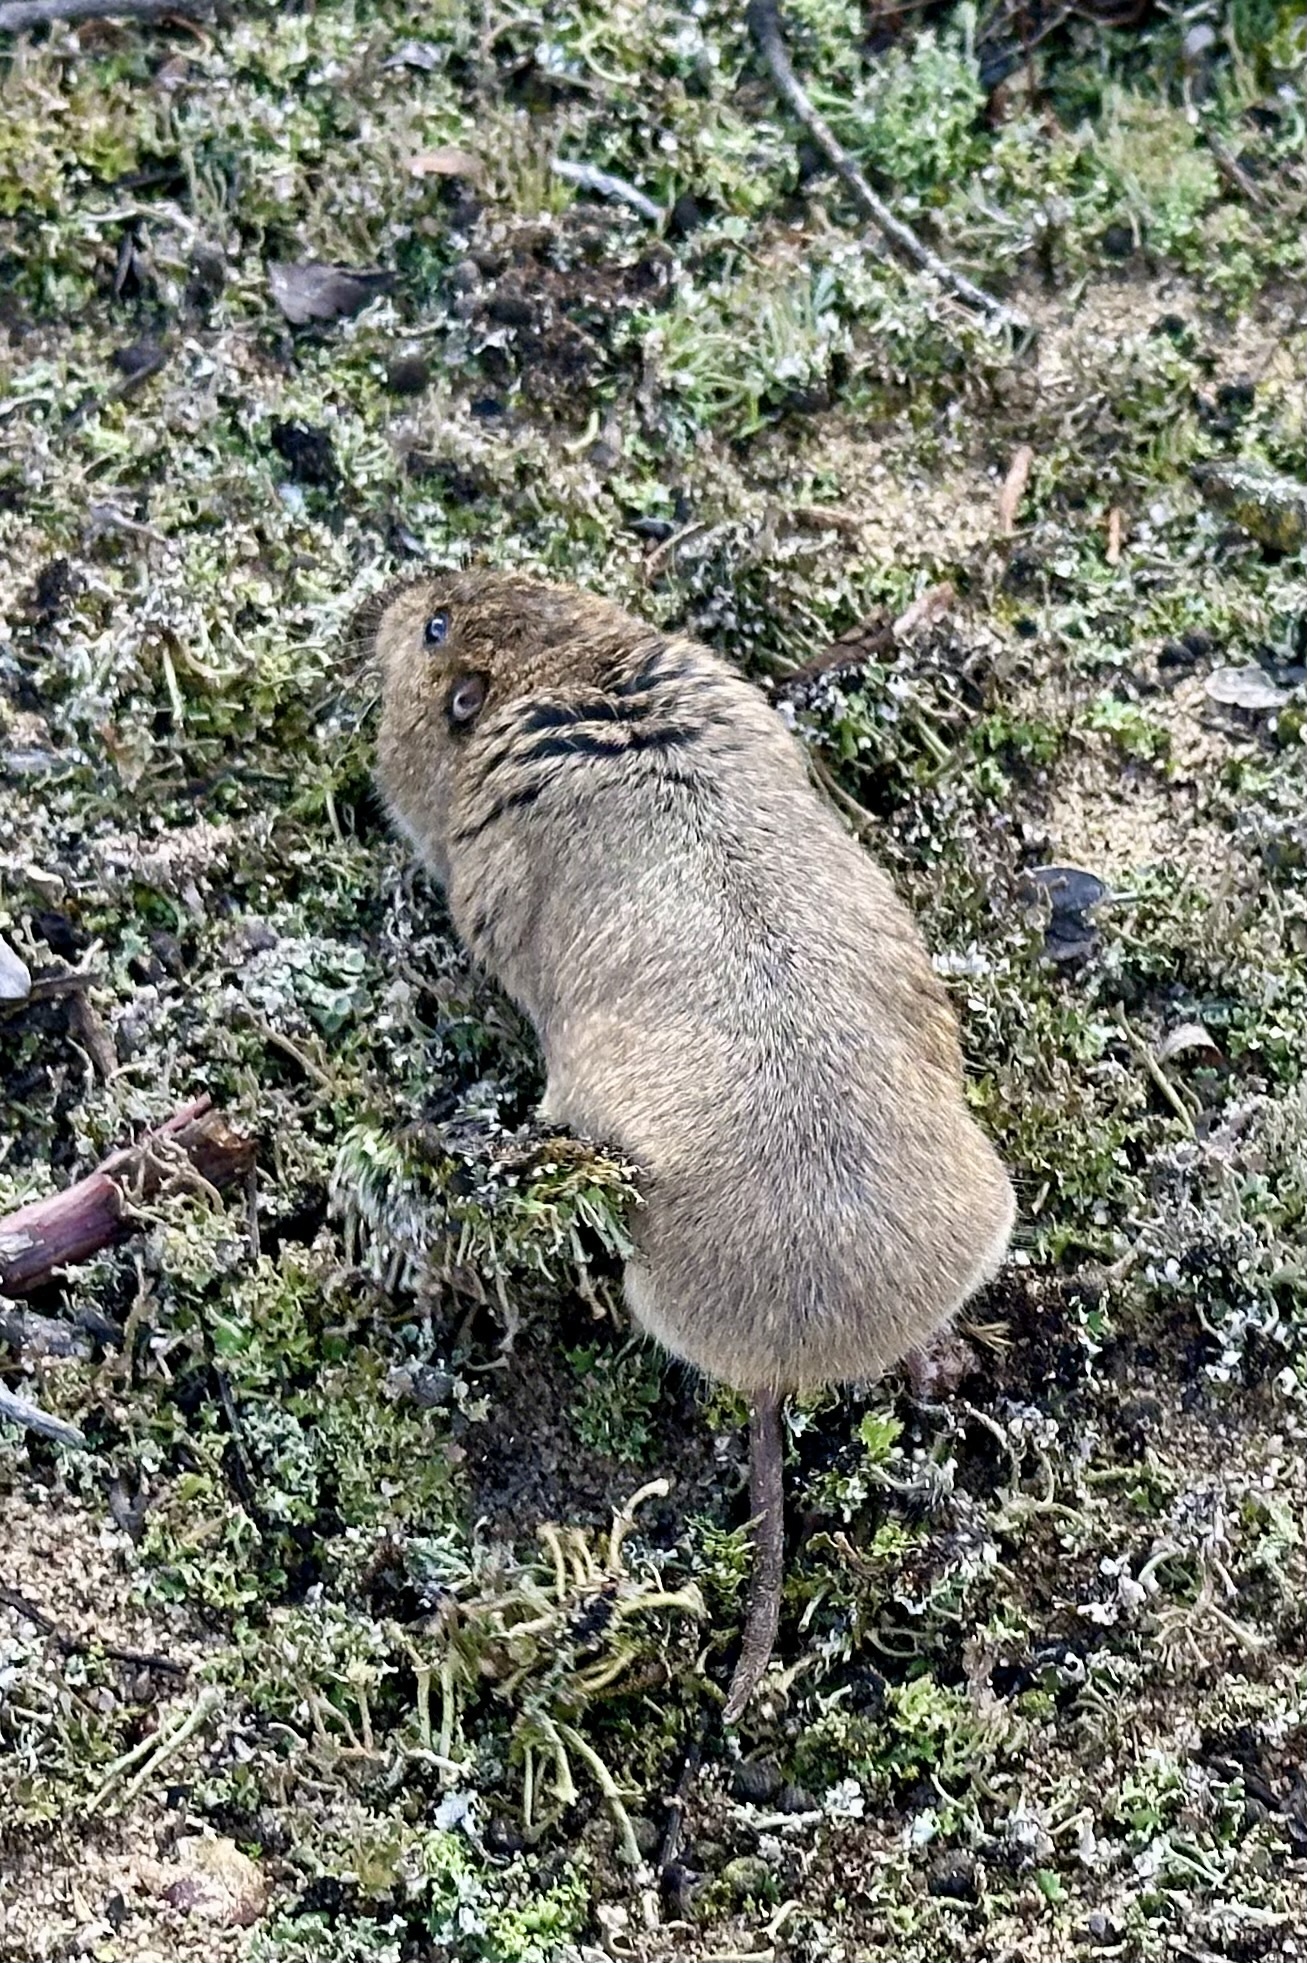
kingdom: Animalia
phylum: Chordata
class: Mammalia
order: Rodentia
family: Geomyidae
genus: Thomomys
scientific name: Thomomys bottae
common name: Botta's pocket gopher
